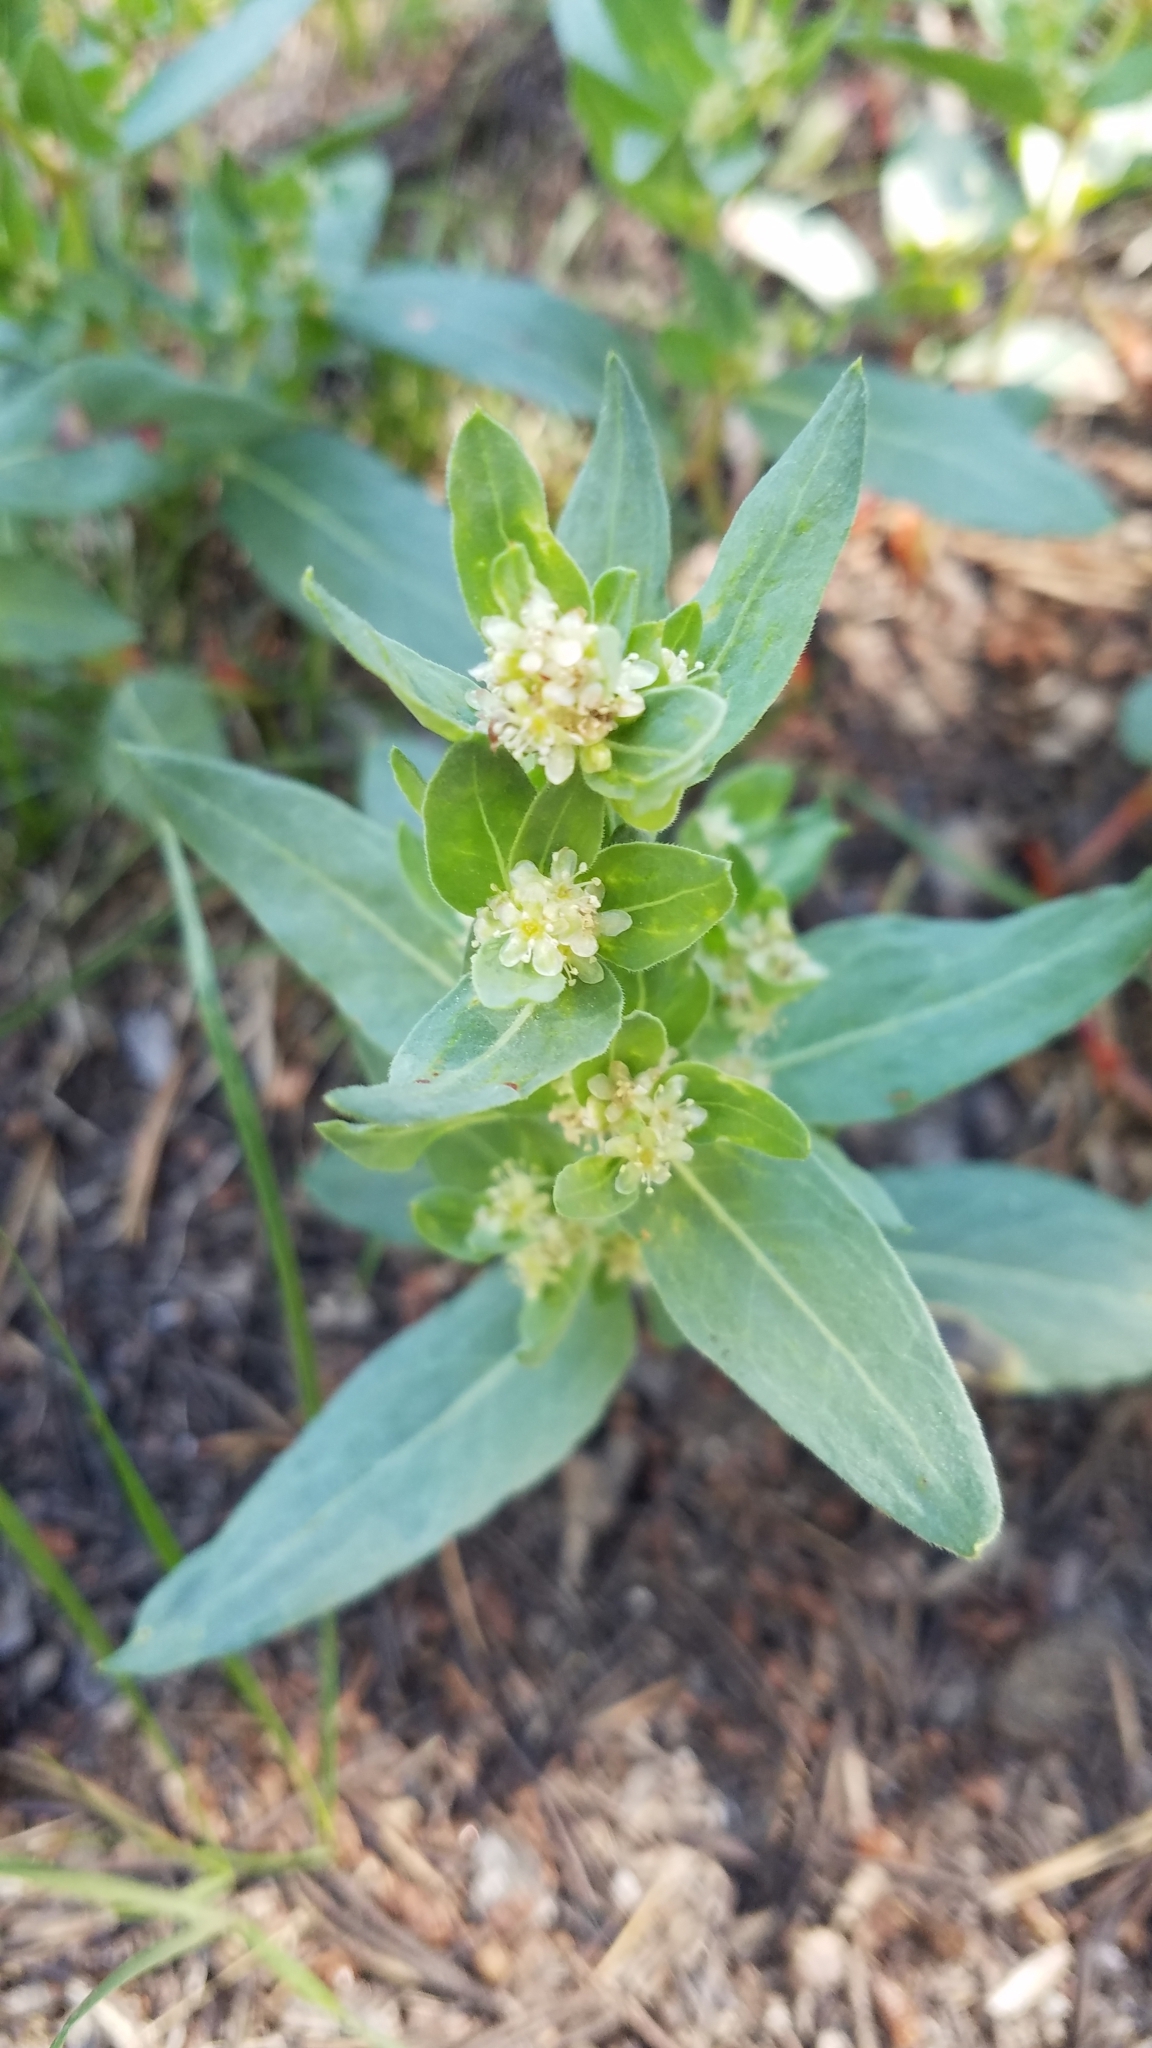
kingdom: Plantae
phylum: Tracheophyta
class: Magnoliopsida
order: Caryophyllales
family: Polygonaceae
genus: Koenigia
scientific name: Koenigia davisiae
